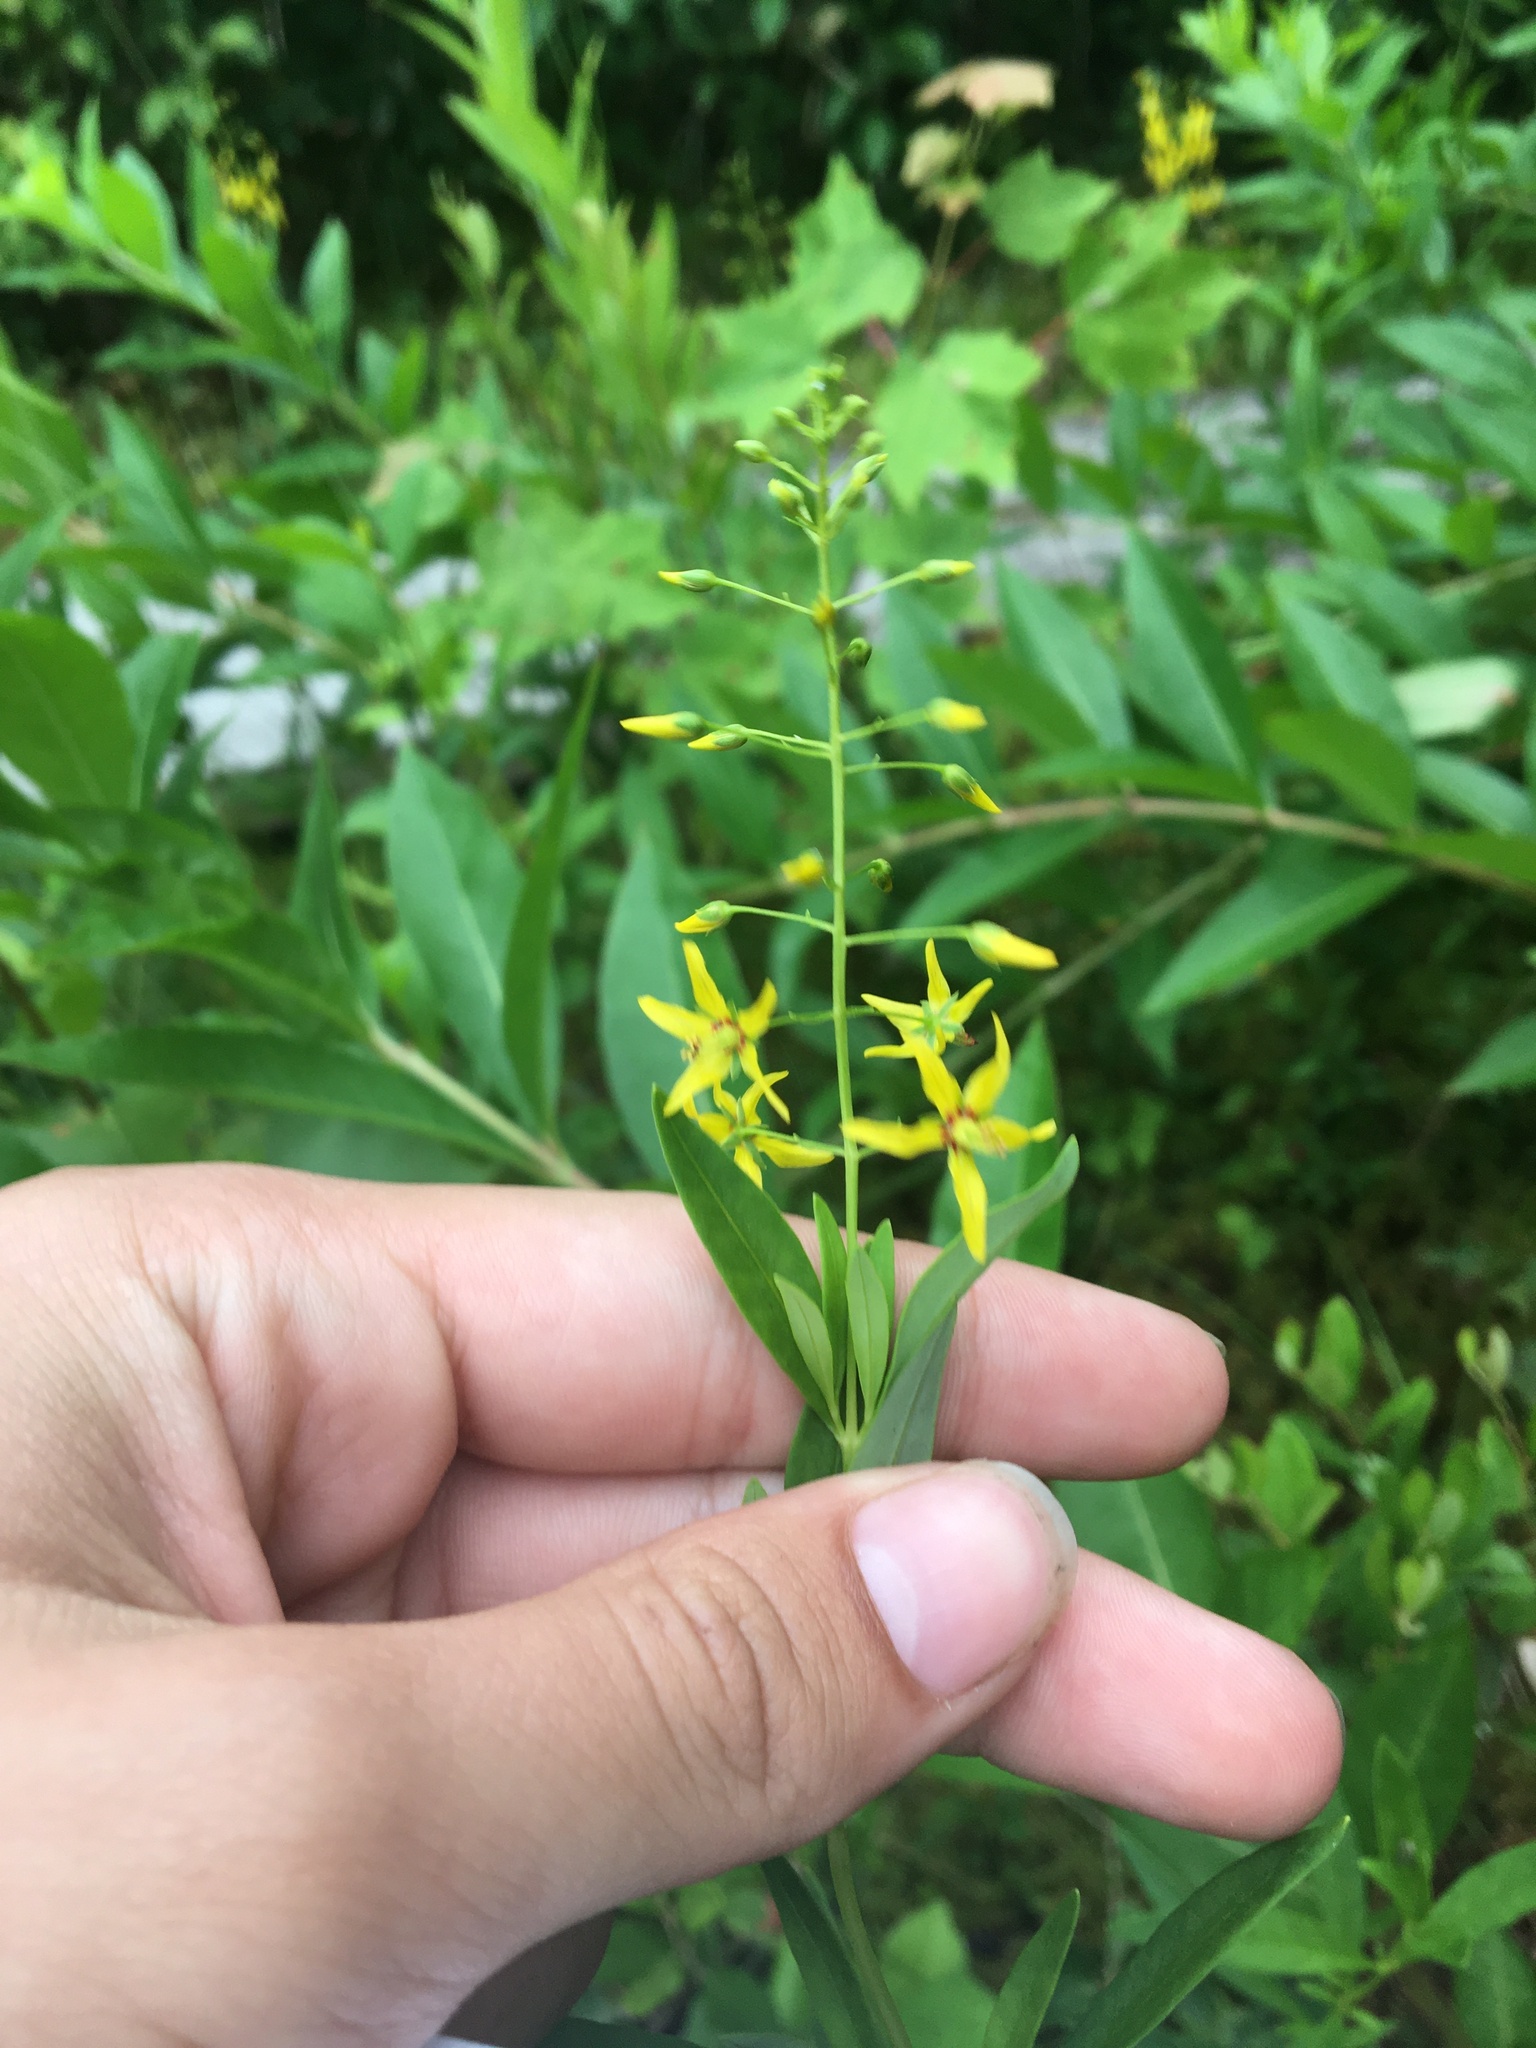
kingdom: Plantae
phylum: Tracheophyta
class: Magnoliopsida
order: Ericales
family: Primulaceae
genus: Lysimachia
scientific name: Lysimachia terrestris
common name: Lake loosestrife
